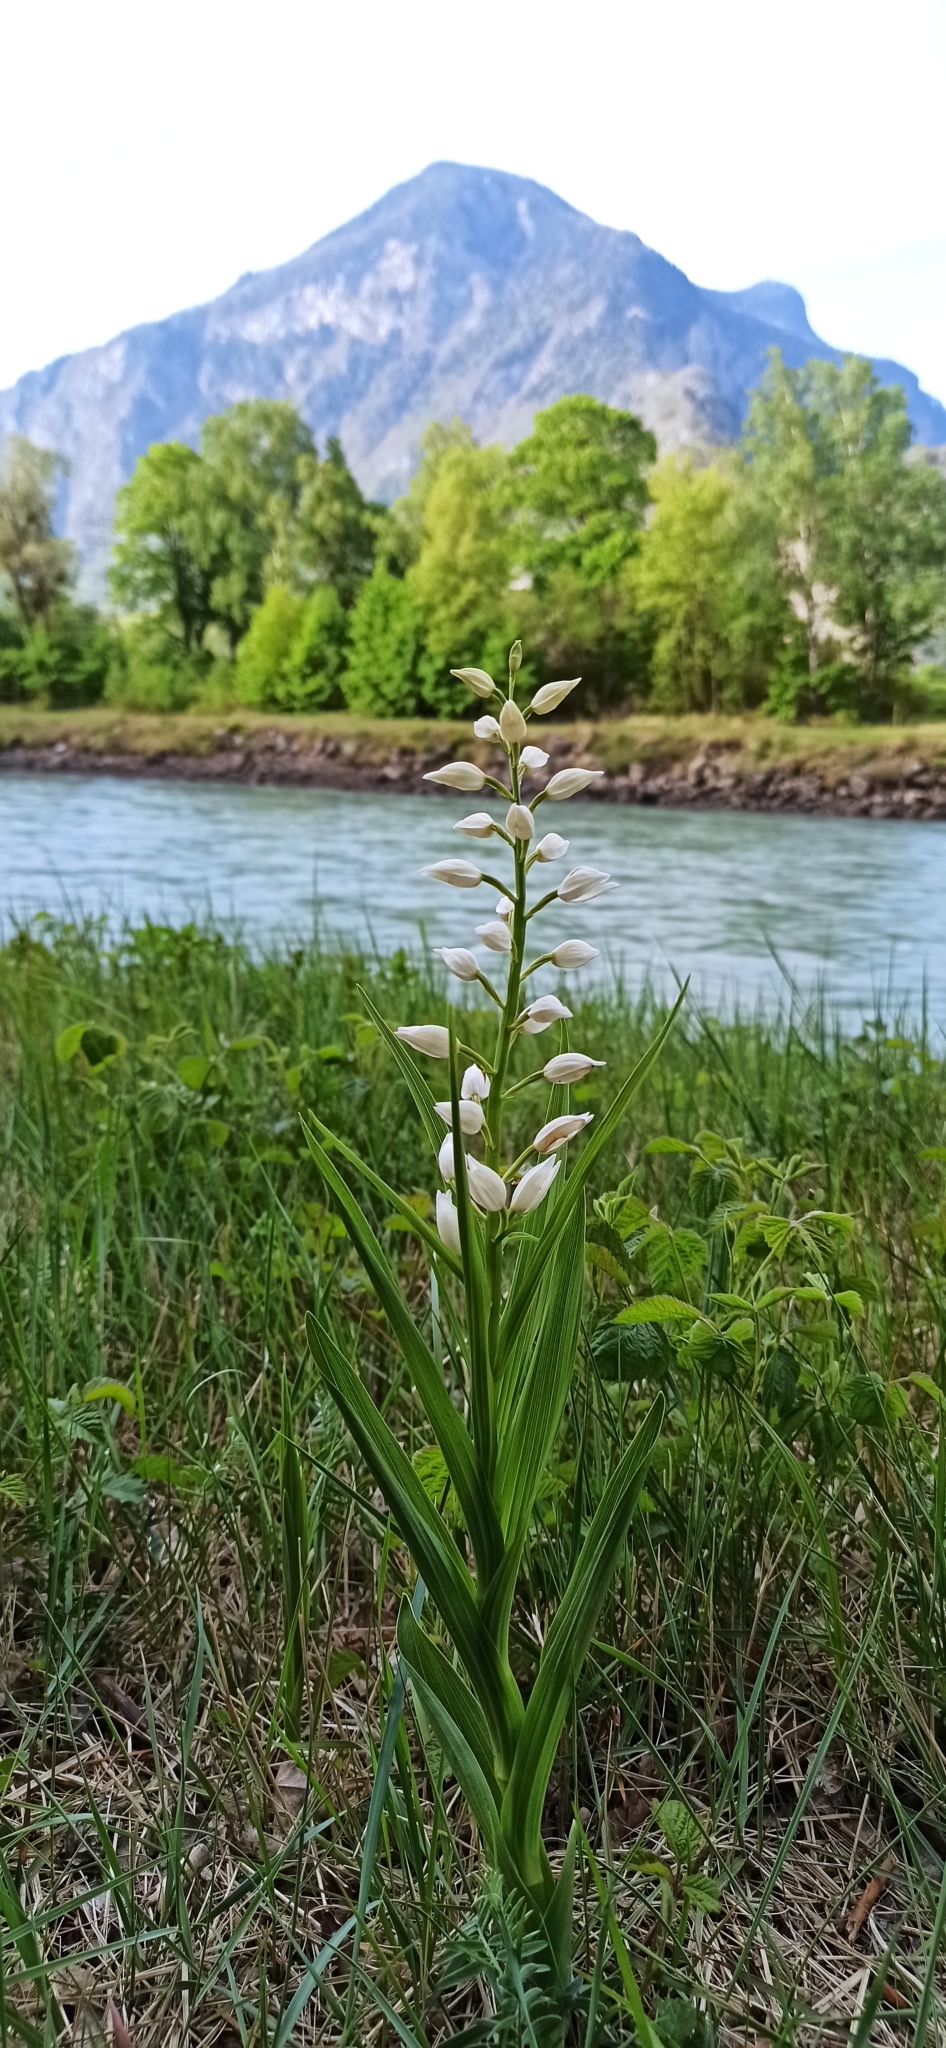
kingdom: Plantae
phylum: Tracheophyta
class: Liliopsida
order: Asparagales
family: Orchidaceae
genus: Cephalanthera
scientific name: Cephalanthera longifolia
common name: Narrow-leaved helleborine
